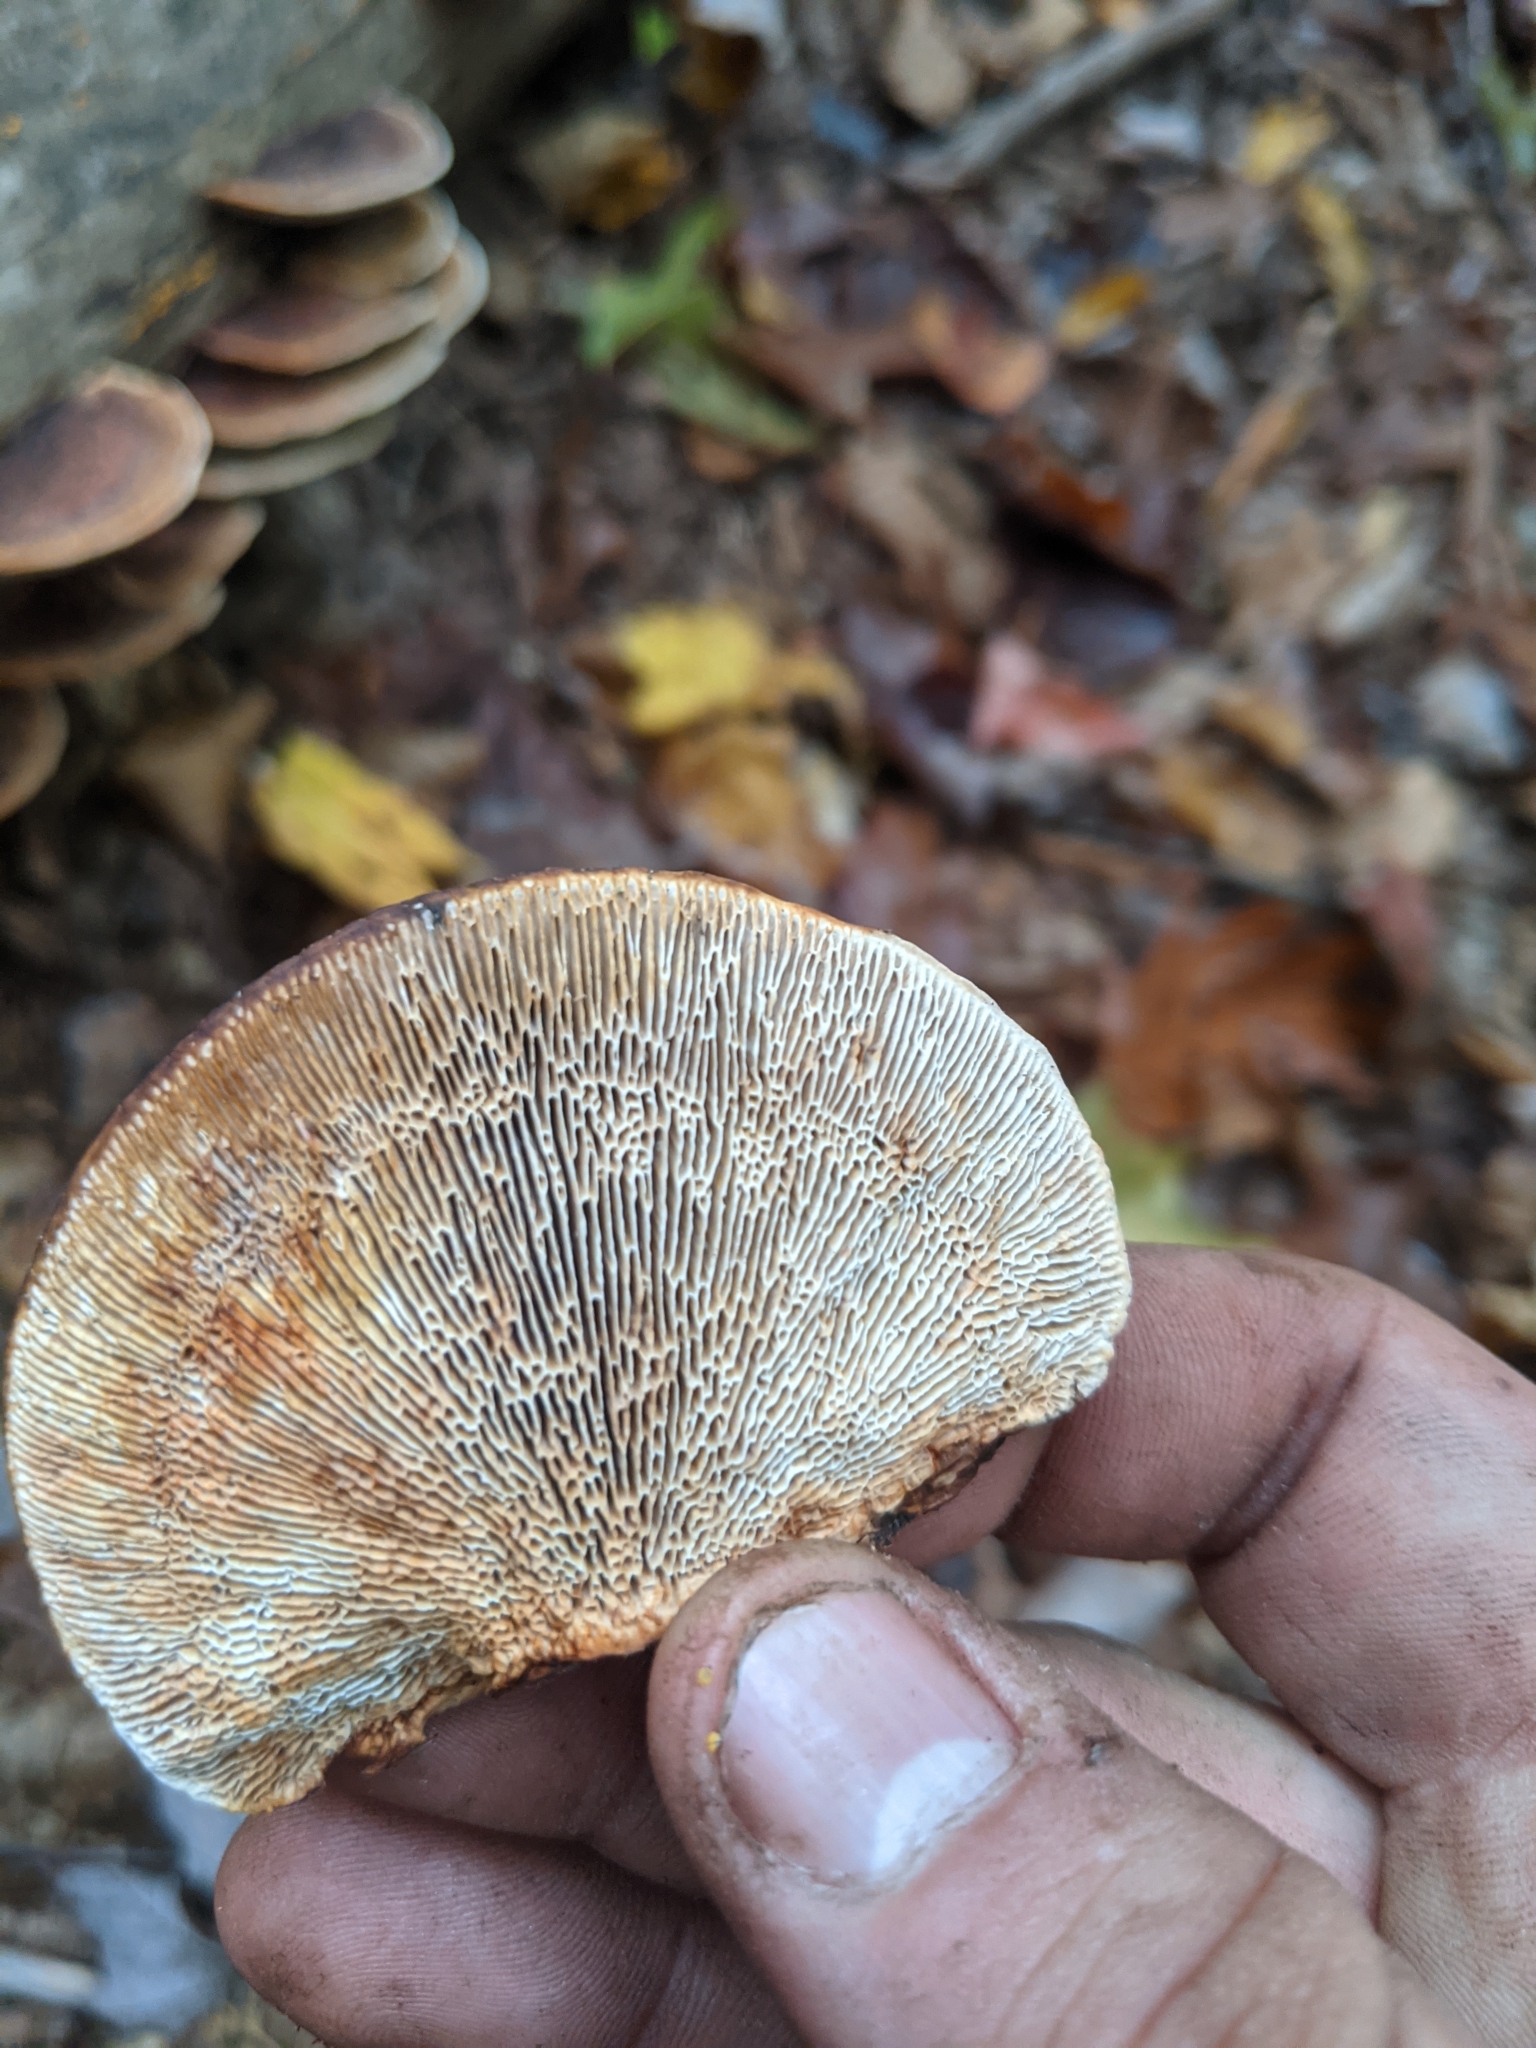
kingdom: Fungi
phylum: Basidiomycota
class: Agaricomycetes
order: Gloeophyllales
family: Gloeophyllaceae
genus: Gloeophyllum
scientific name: Gloeophyllum sepiarium
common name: Conifer mazegill
